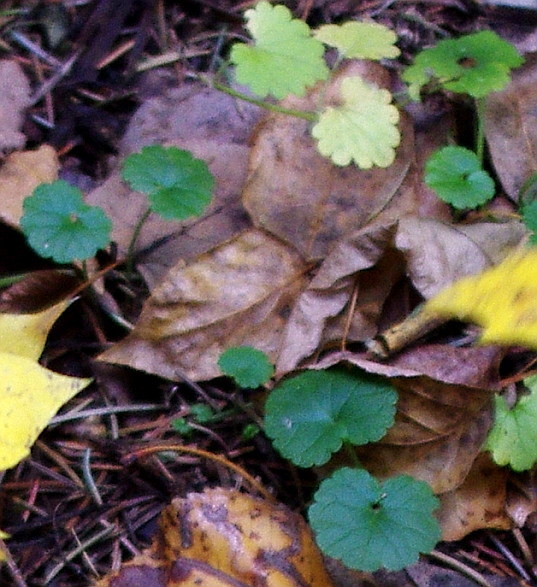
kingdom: Plantae
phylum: Tracheophyta
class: Magnoliopsida
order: Lamiales
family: Lamiaceae
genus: Glechoma
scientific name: Glechoma hederacea
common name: Ground ivy
